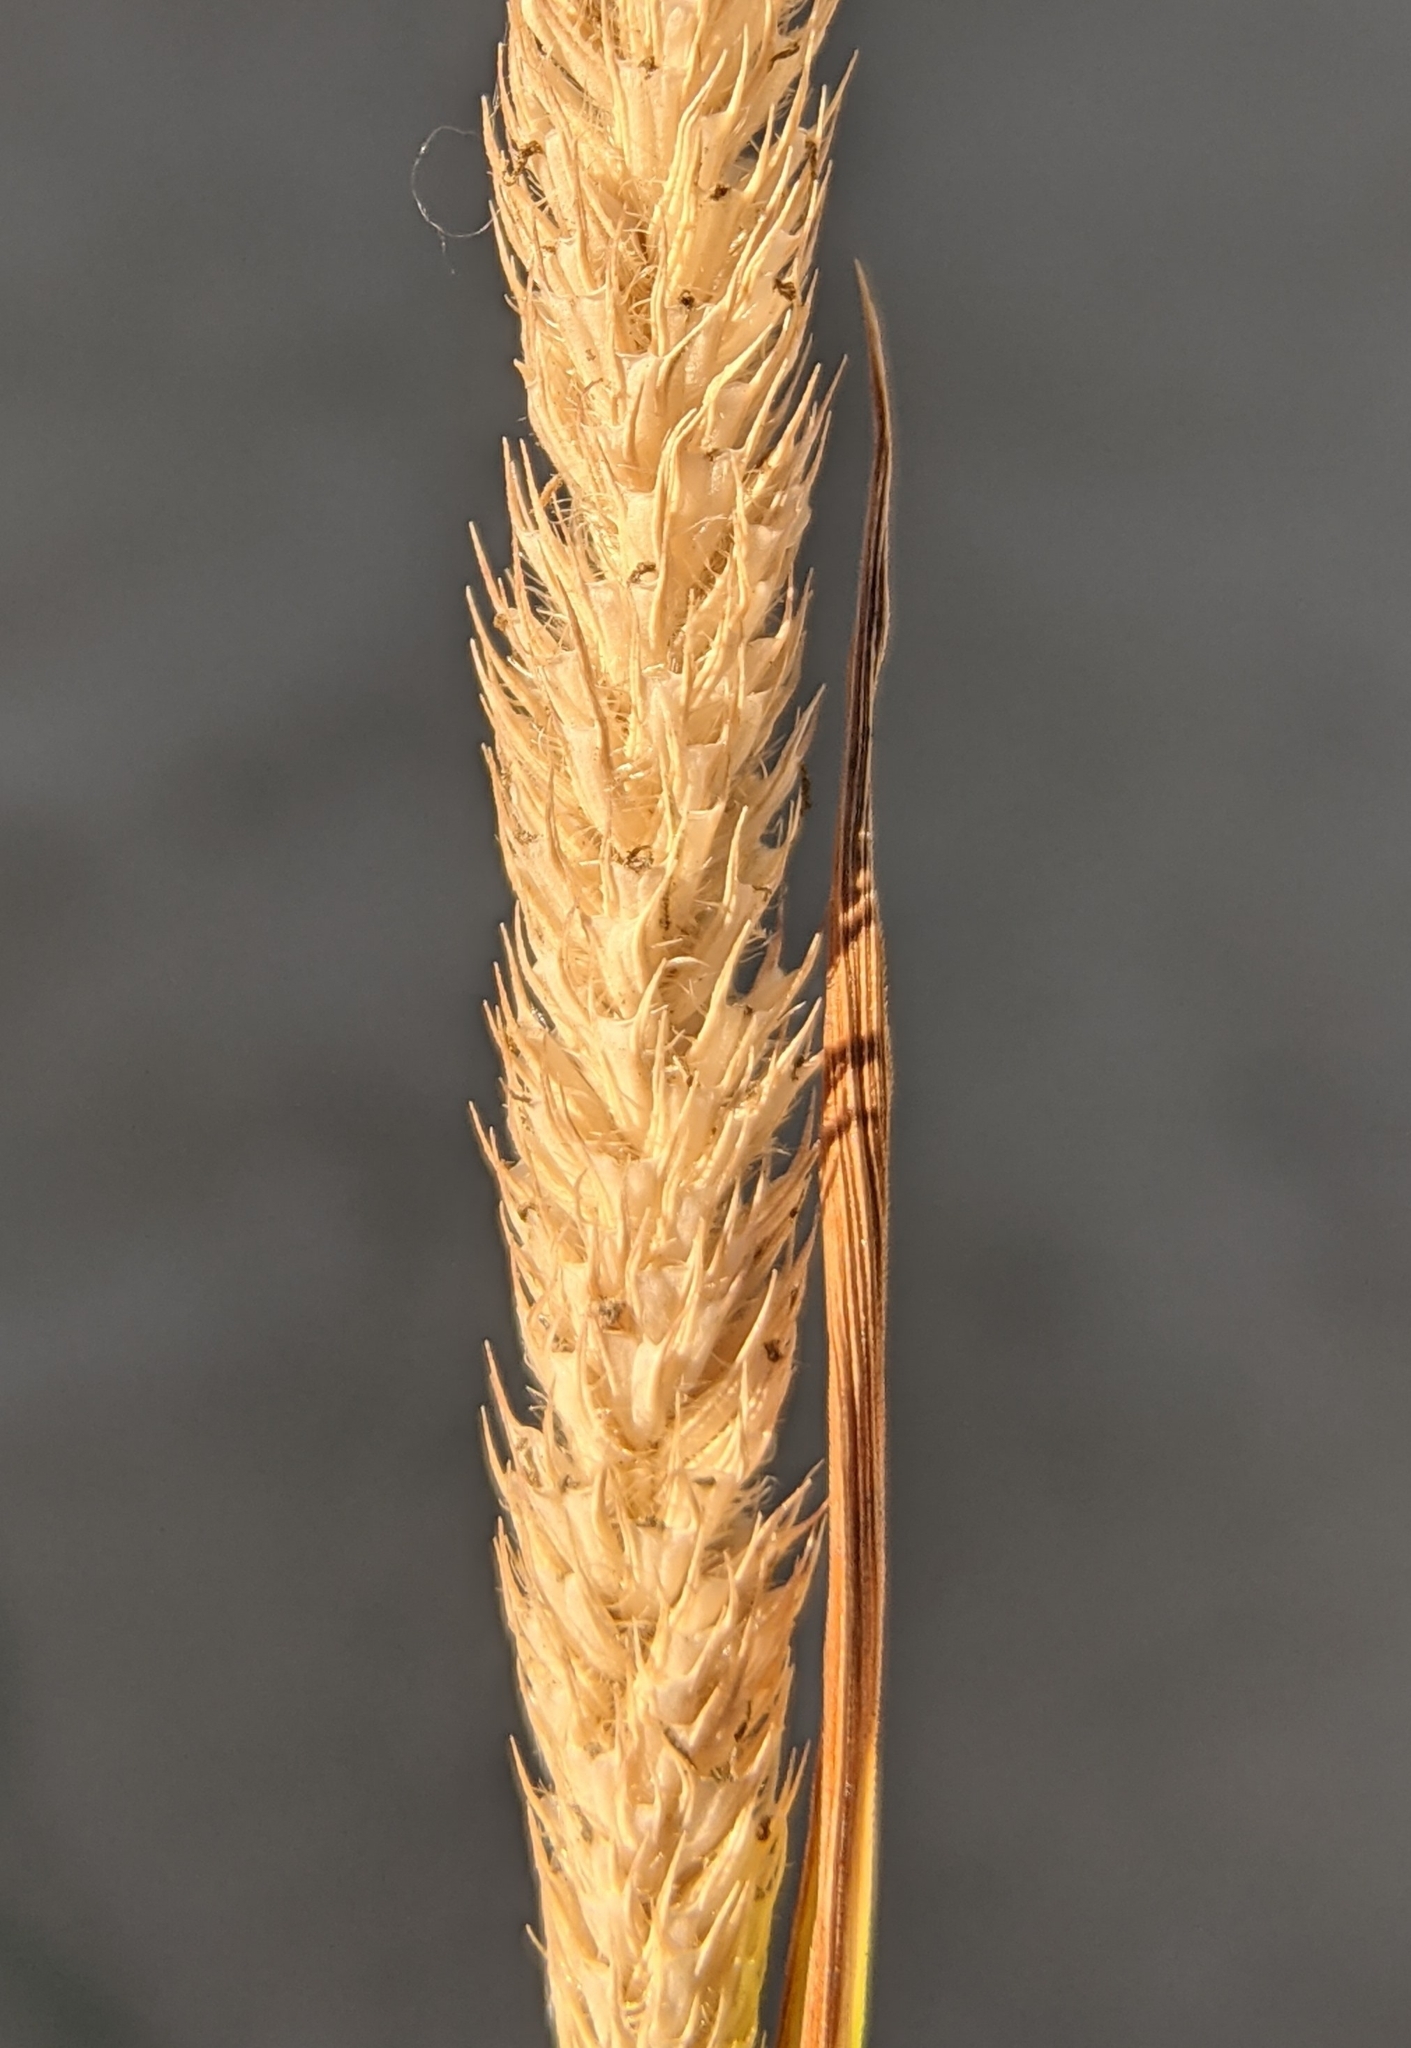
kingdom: Plantae
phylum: Tracheophyta
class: Liliopsida
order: Poales
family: Poaceae
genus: Phleum
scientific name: Phleum pratense
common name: Timothy grass
